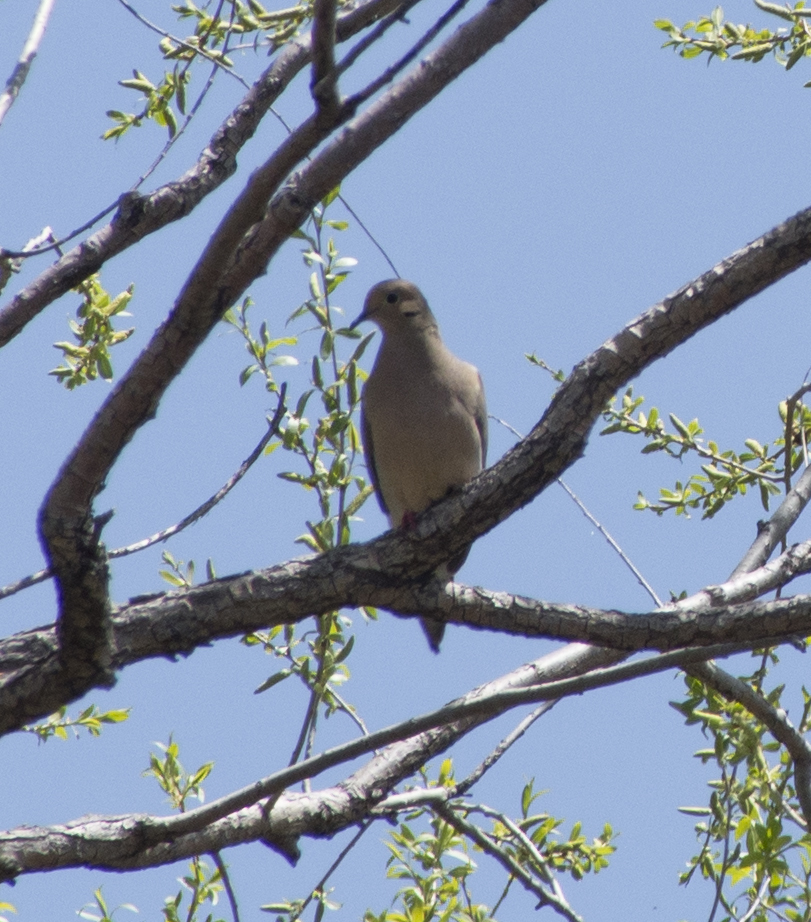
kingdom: Animalia
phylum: Chordata
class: Aves
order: Columbiformes
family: Columbidae
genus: Zenaida
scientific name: Zenaida macroura
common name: Mourning dove
